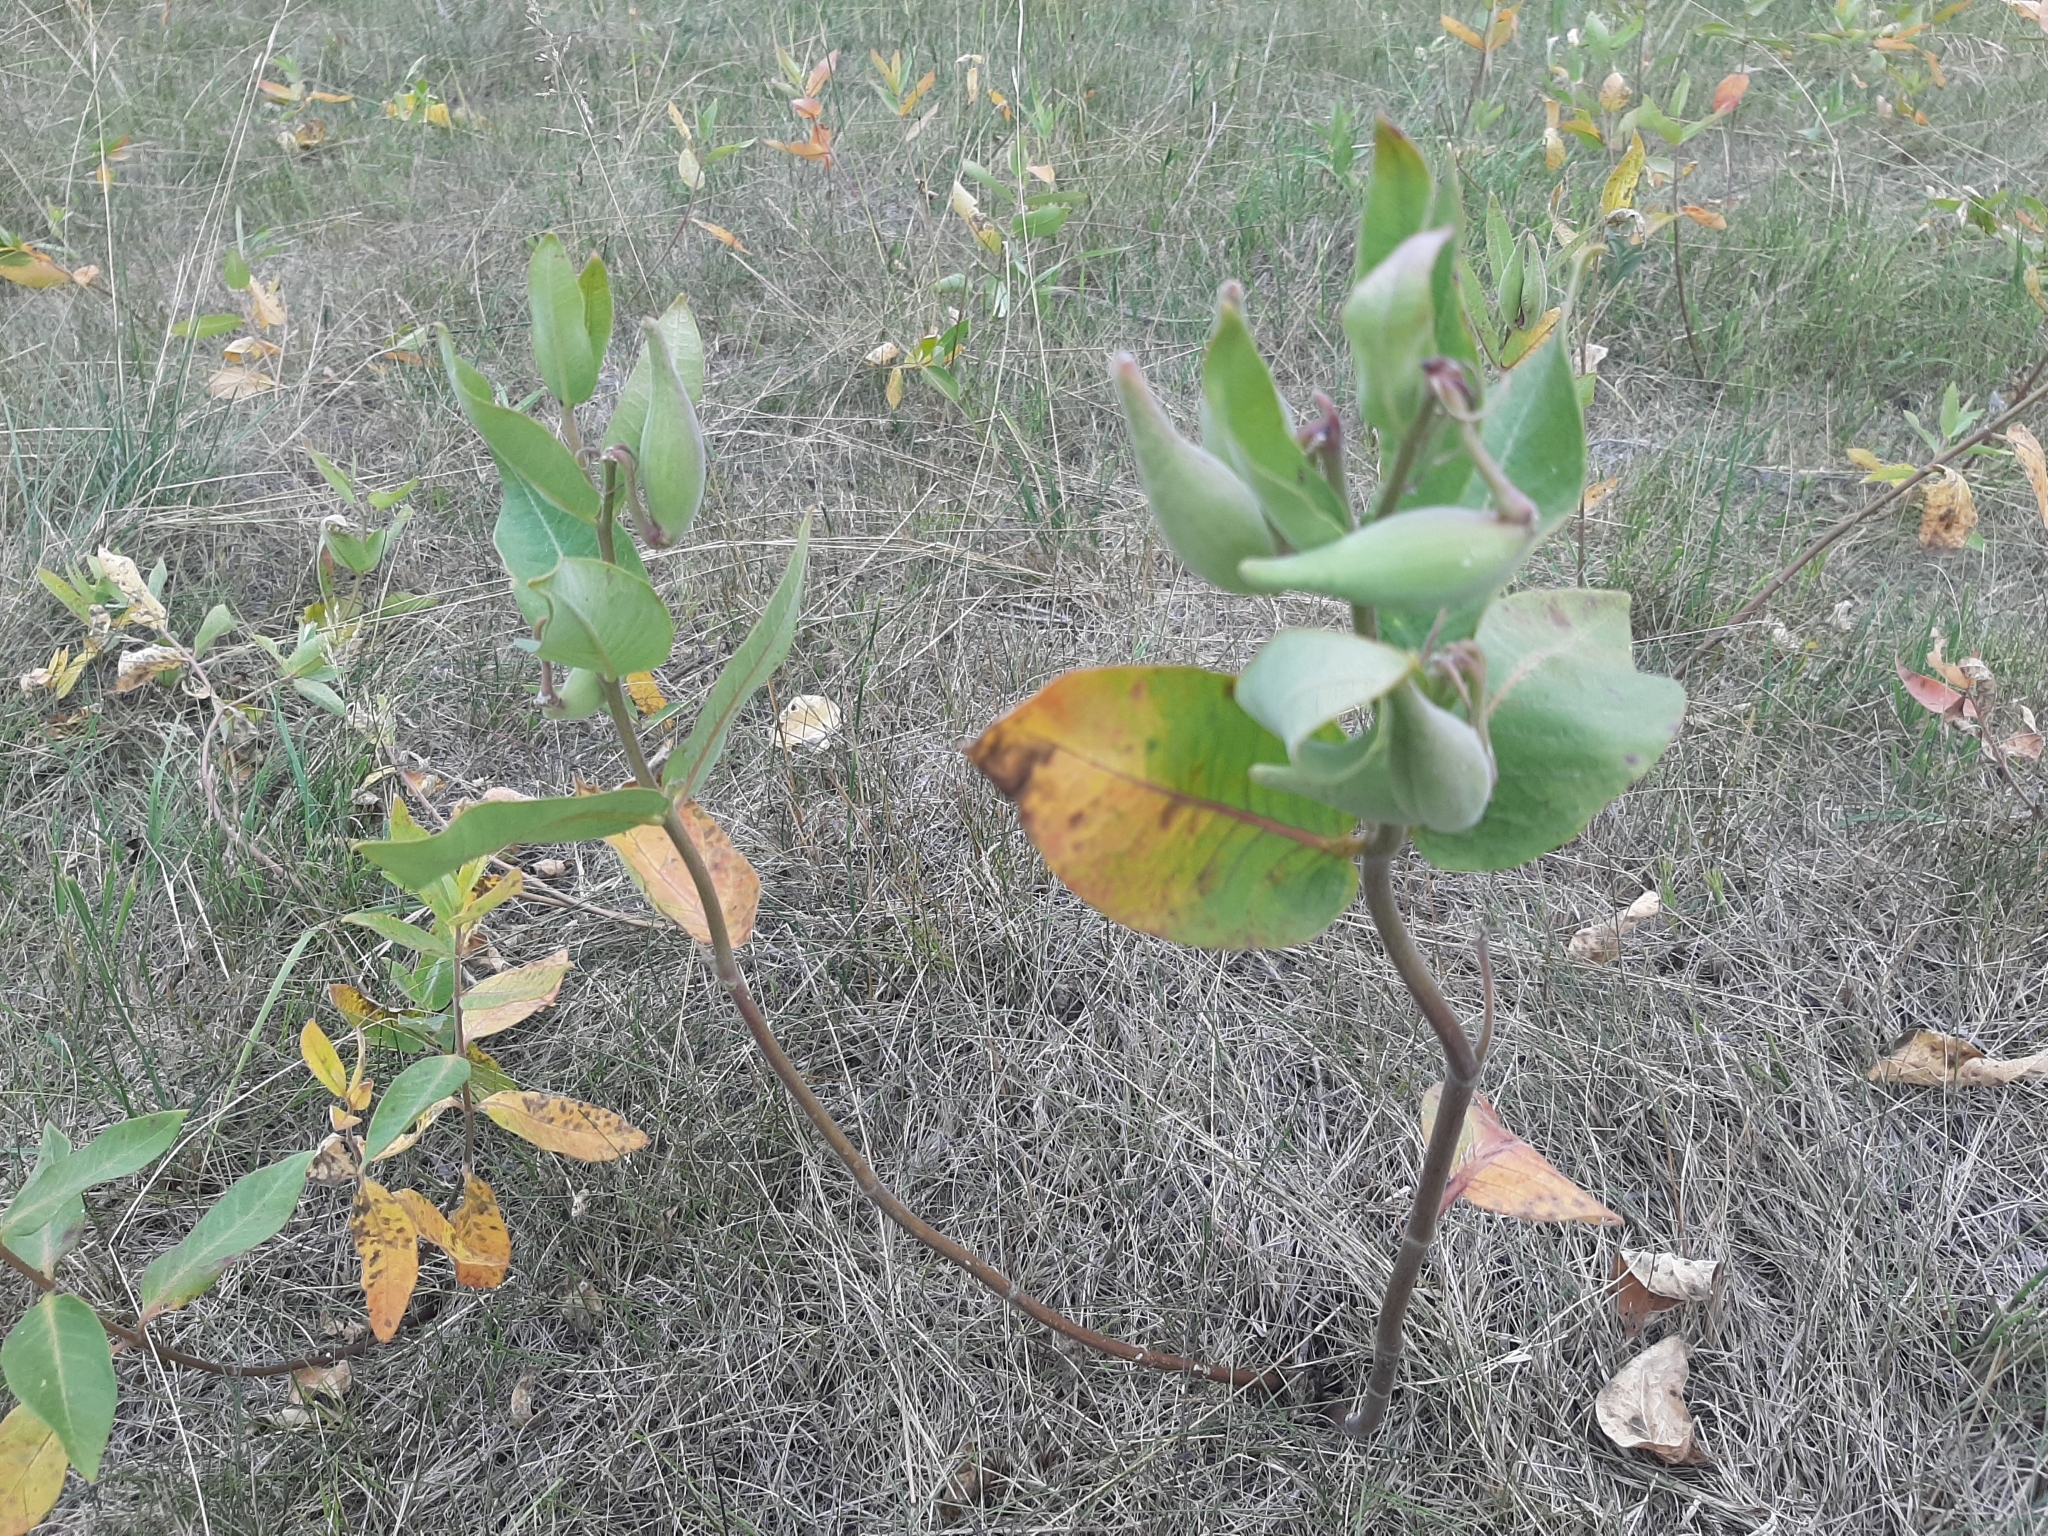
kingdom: Plantae
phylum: Tracheophyta
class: Magnoliopsida
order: Gentianales
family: Apocynaceae
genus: Asclepias
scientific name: Asclepias ovalifolia
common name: Dwarf milkweed
